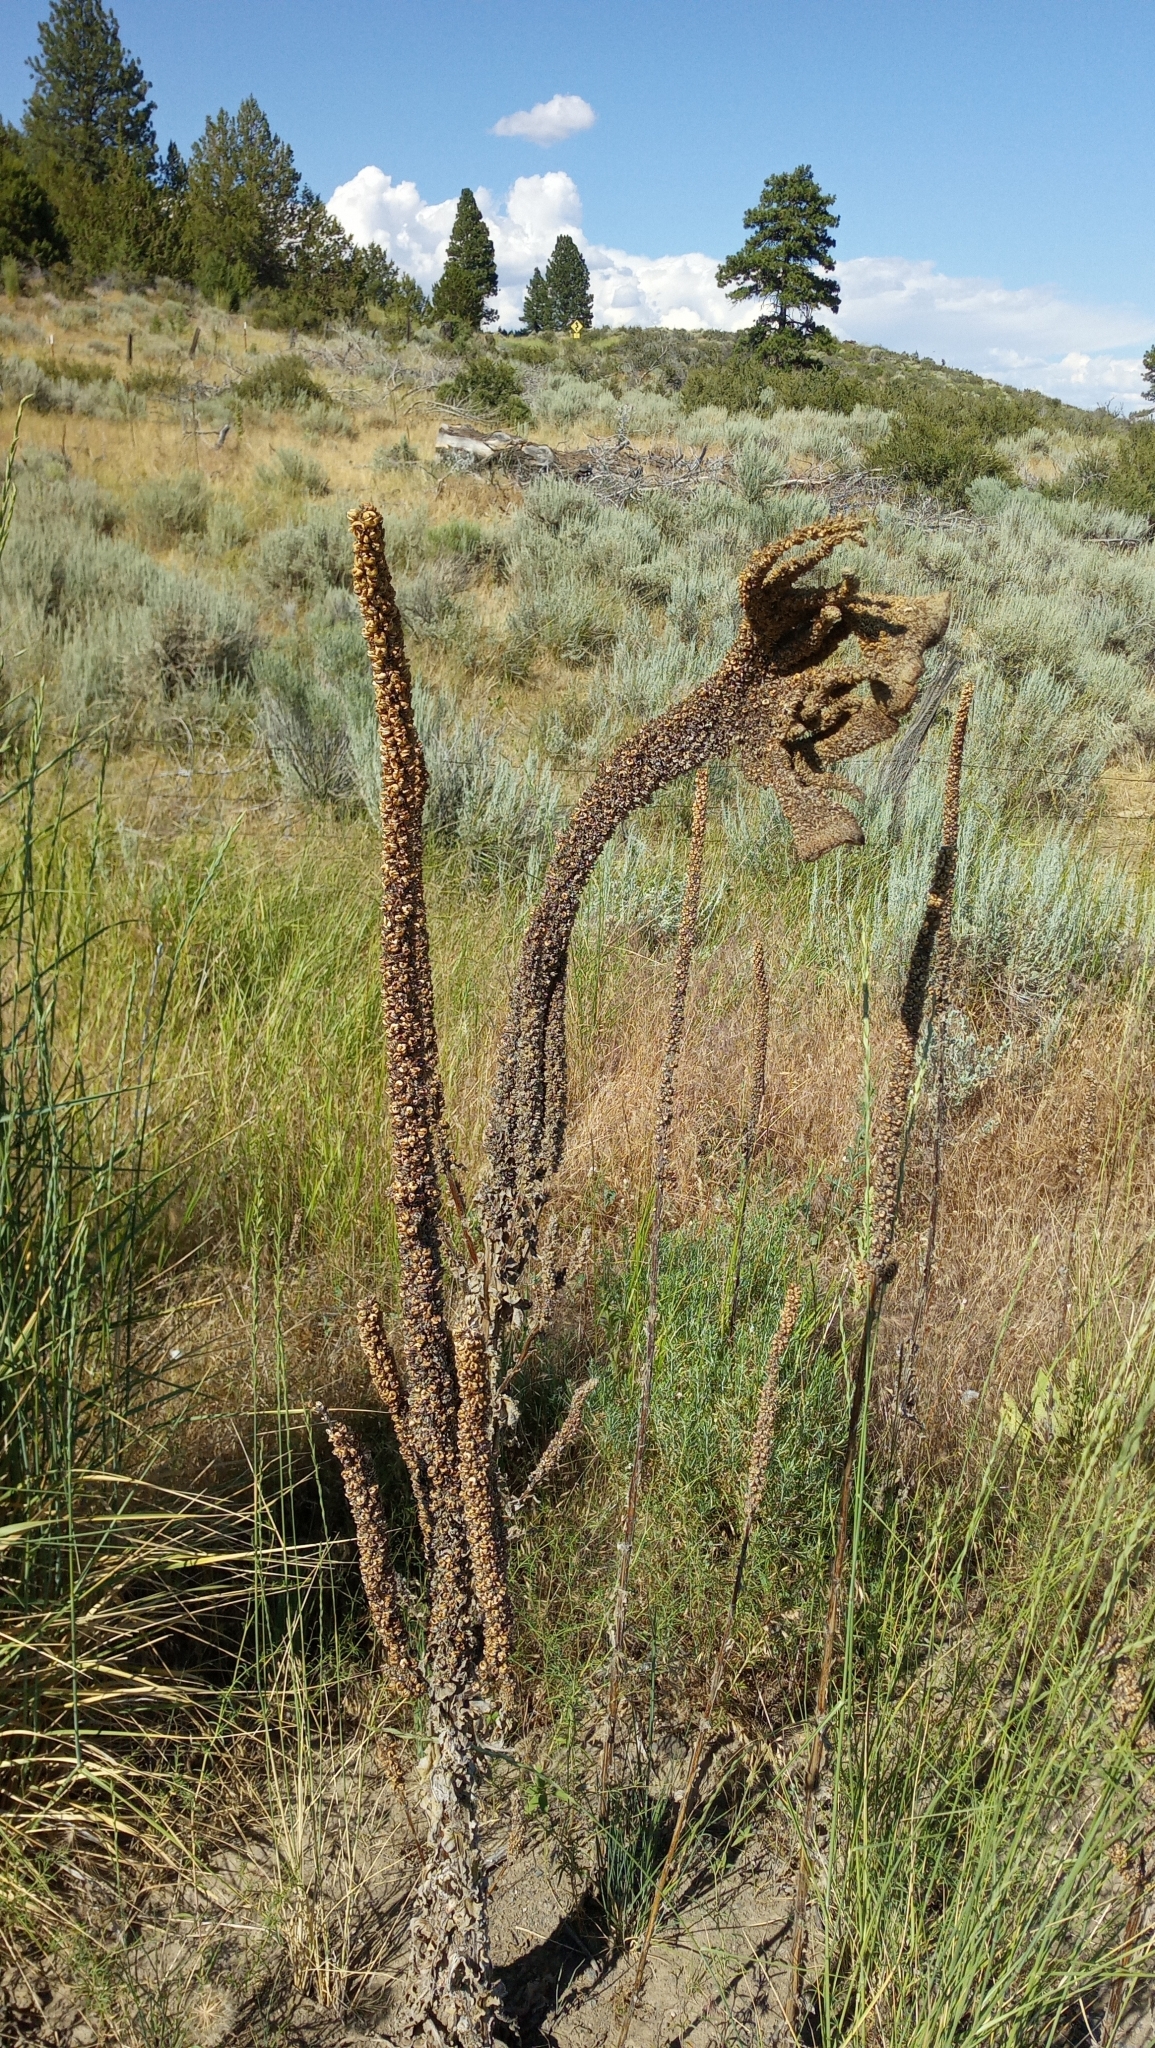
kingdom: Plantae
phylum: Tracheophyta
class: Magnoliopsida
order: Lamiales
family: Scrophulariaceae
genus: Verbascum
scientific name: Verbascum thapsus
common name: Common mullein
